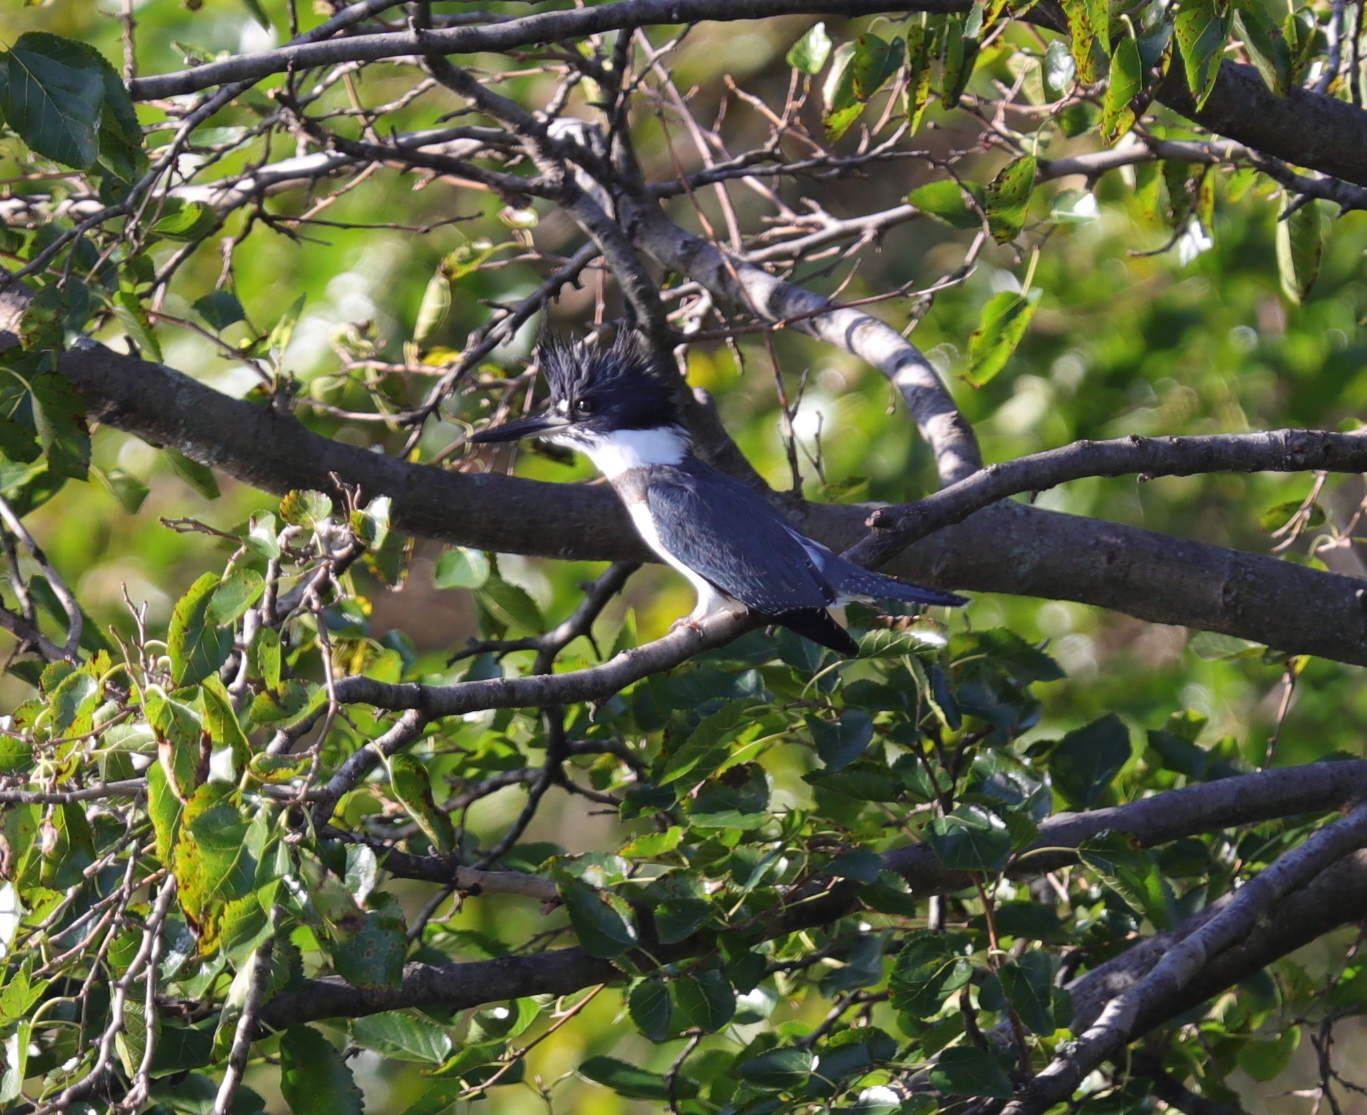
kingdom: Animalia
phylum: Chordata
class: Aves
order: Coraciiformes
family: Alcedinidae
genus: Megaceryle
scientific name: Megaceryle alcyon
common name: Belted kingfisher
